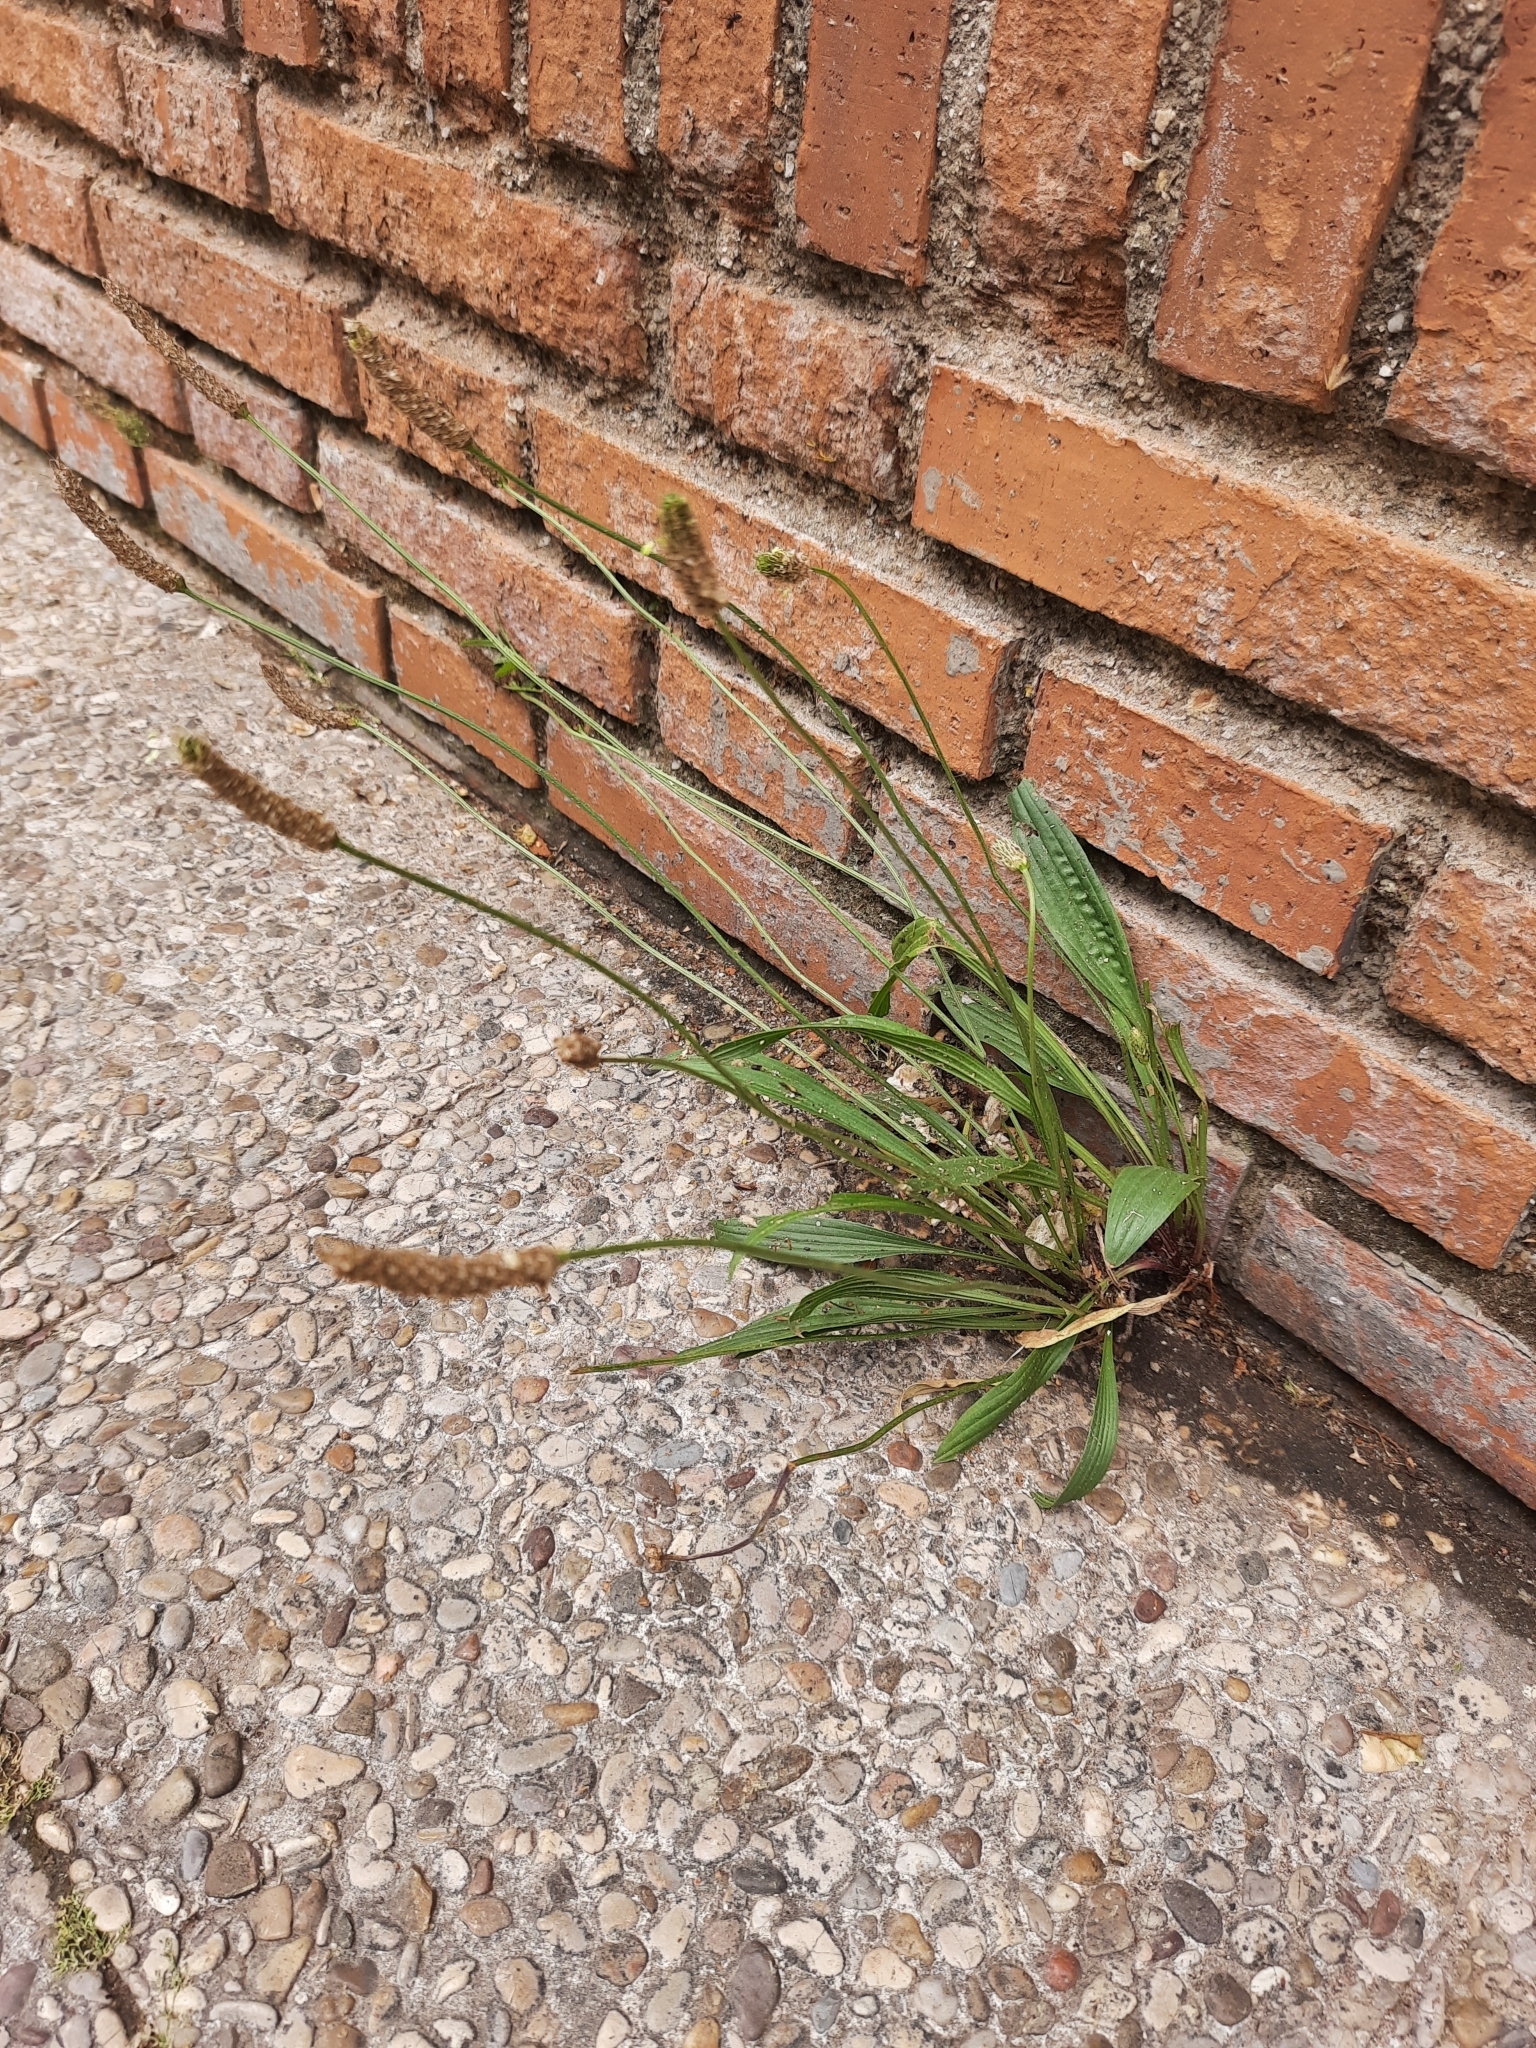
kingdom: Plantae
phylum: Tracheophyta
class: Magnoliopsida
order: Lamiales
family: Plantaginaceae
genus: Plantago
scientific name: Plantago lanceolata
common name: Ribwort plantain
